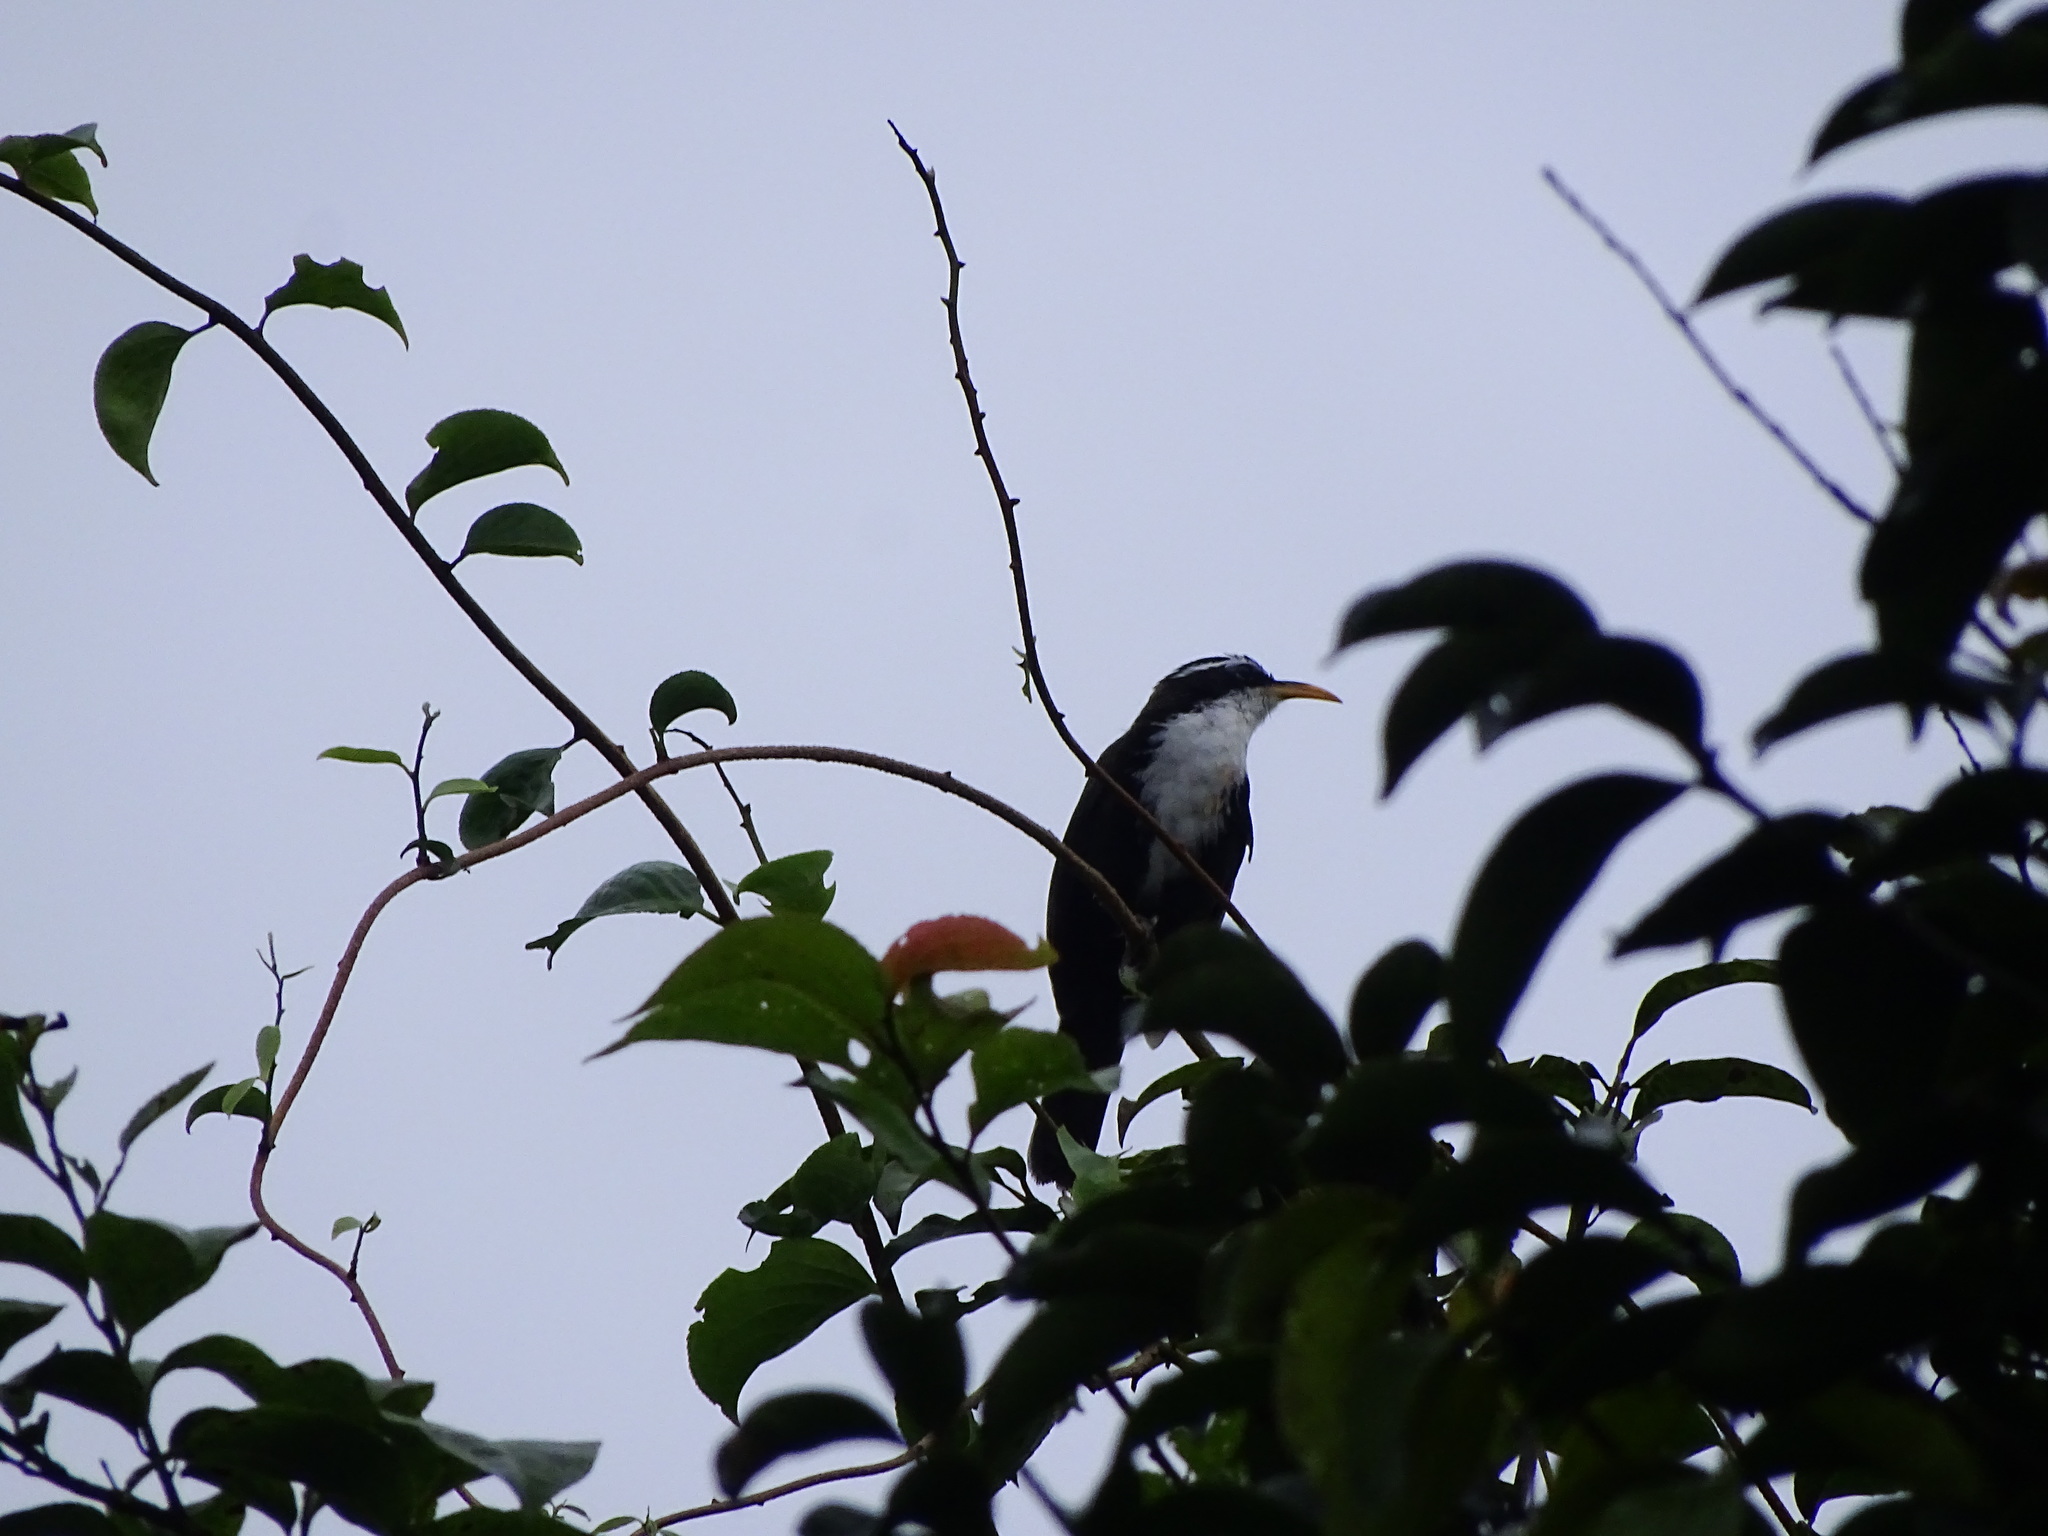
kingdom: Animalia
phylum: Chordata
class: Aves
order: Passeriformes
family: Timaliidae
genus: Pomatorhinus
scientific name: Pomatorhinus horsfieldii
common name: Indian scimitar babbler
